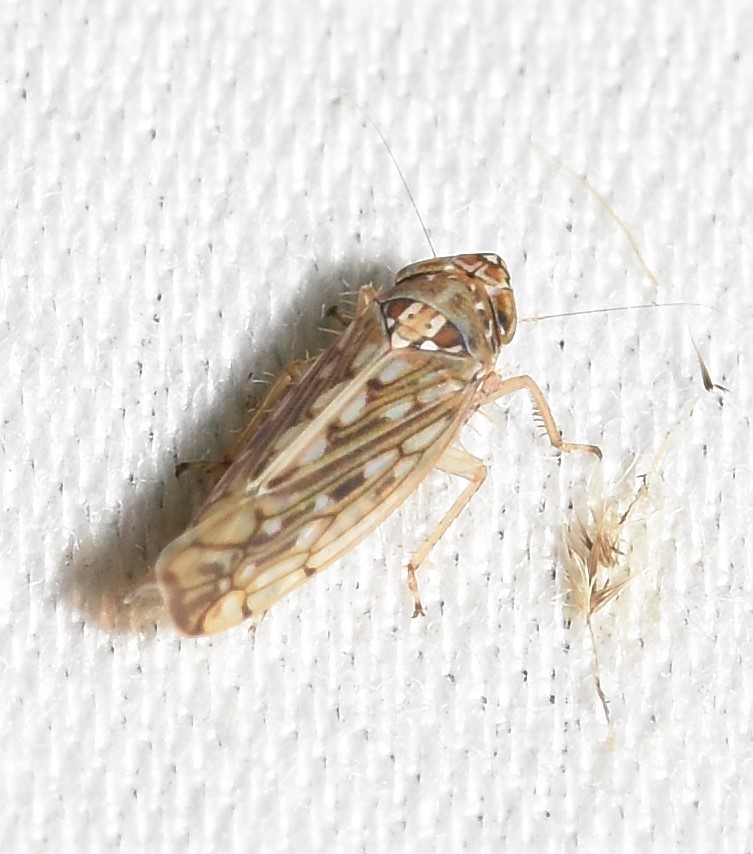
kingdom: Animalia
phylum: Arthropoda
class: Insecta
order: Hemiptera
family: Cicadellidae
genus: Osbornellus
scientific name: Osbornellus clarus
